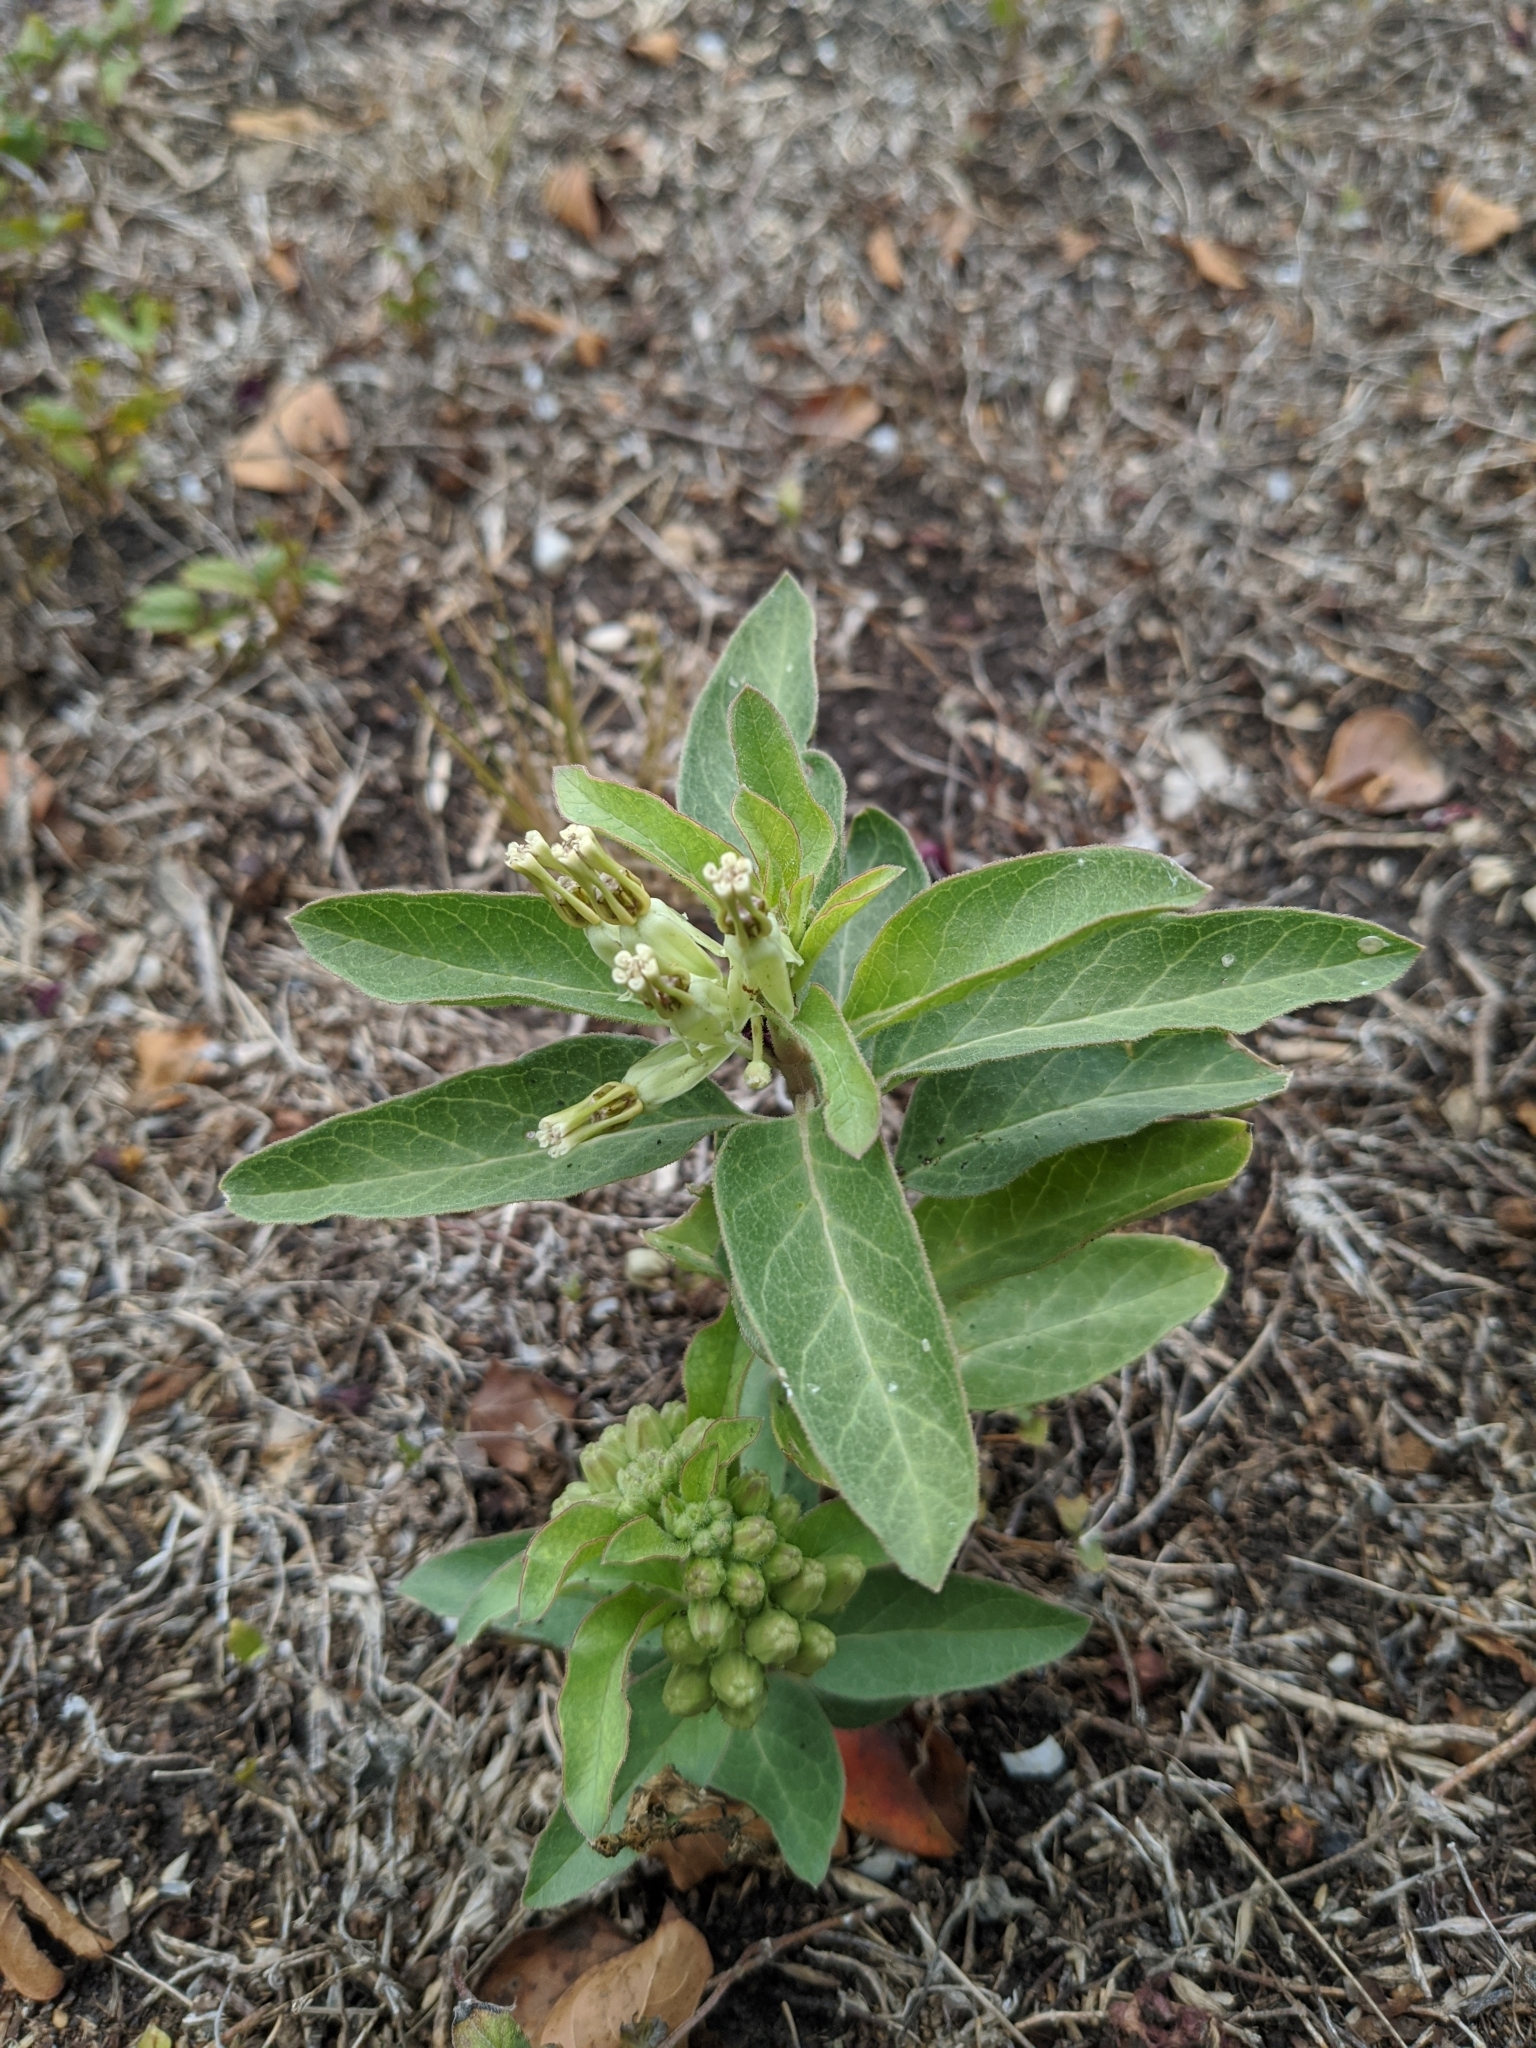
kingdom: Plantae
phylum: Tracheophyta
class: Magnoliopsida
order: Gentianales
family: Apocynaceae
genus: Asclepias
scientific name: Asclepias oenotheroides
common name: Zizotes milkweed
